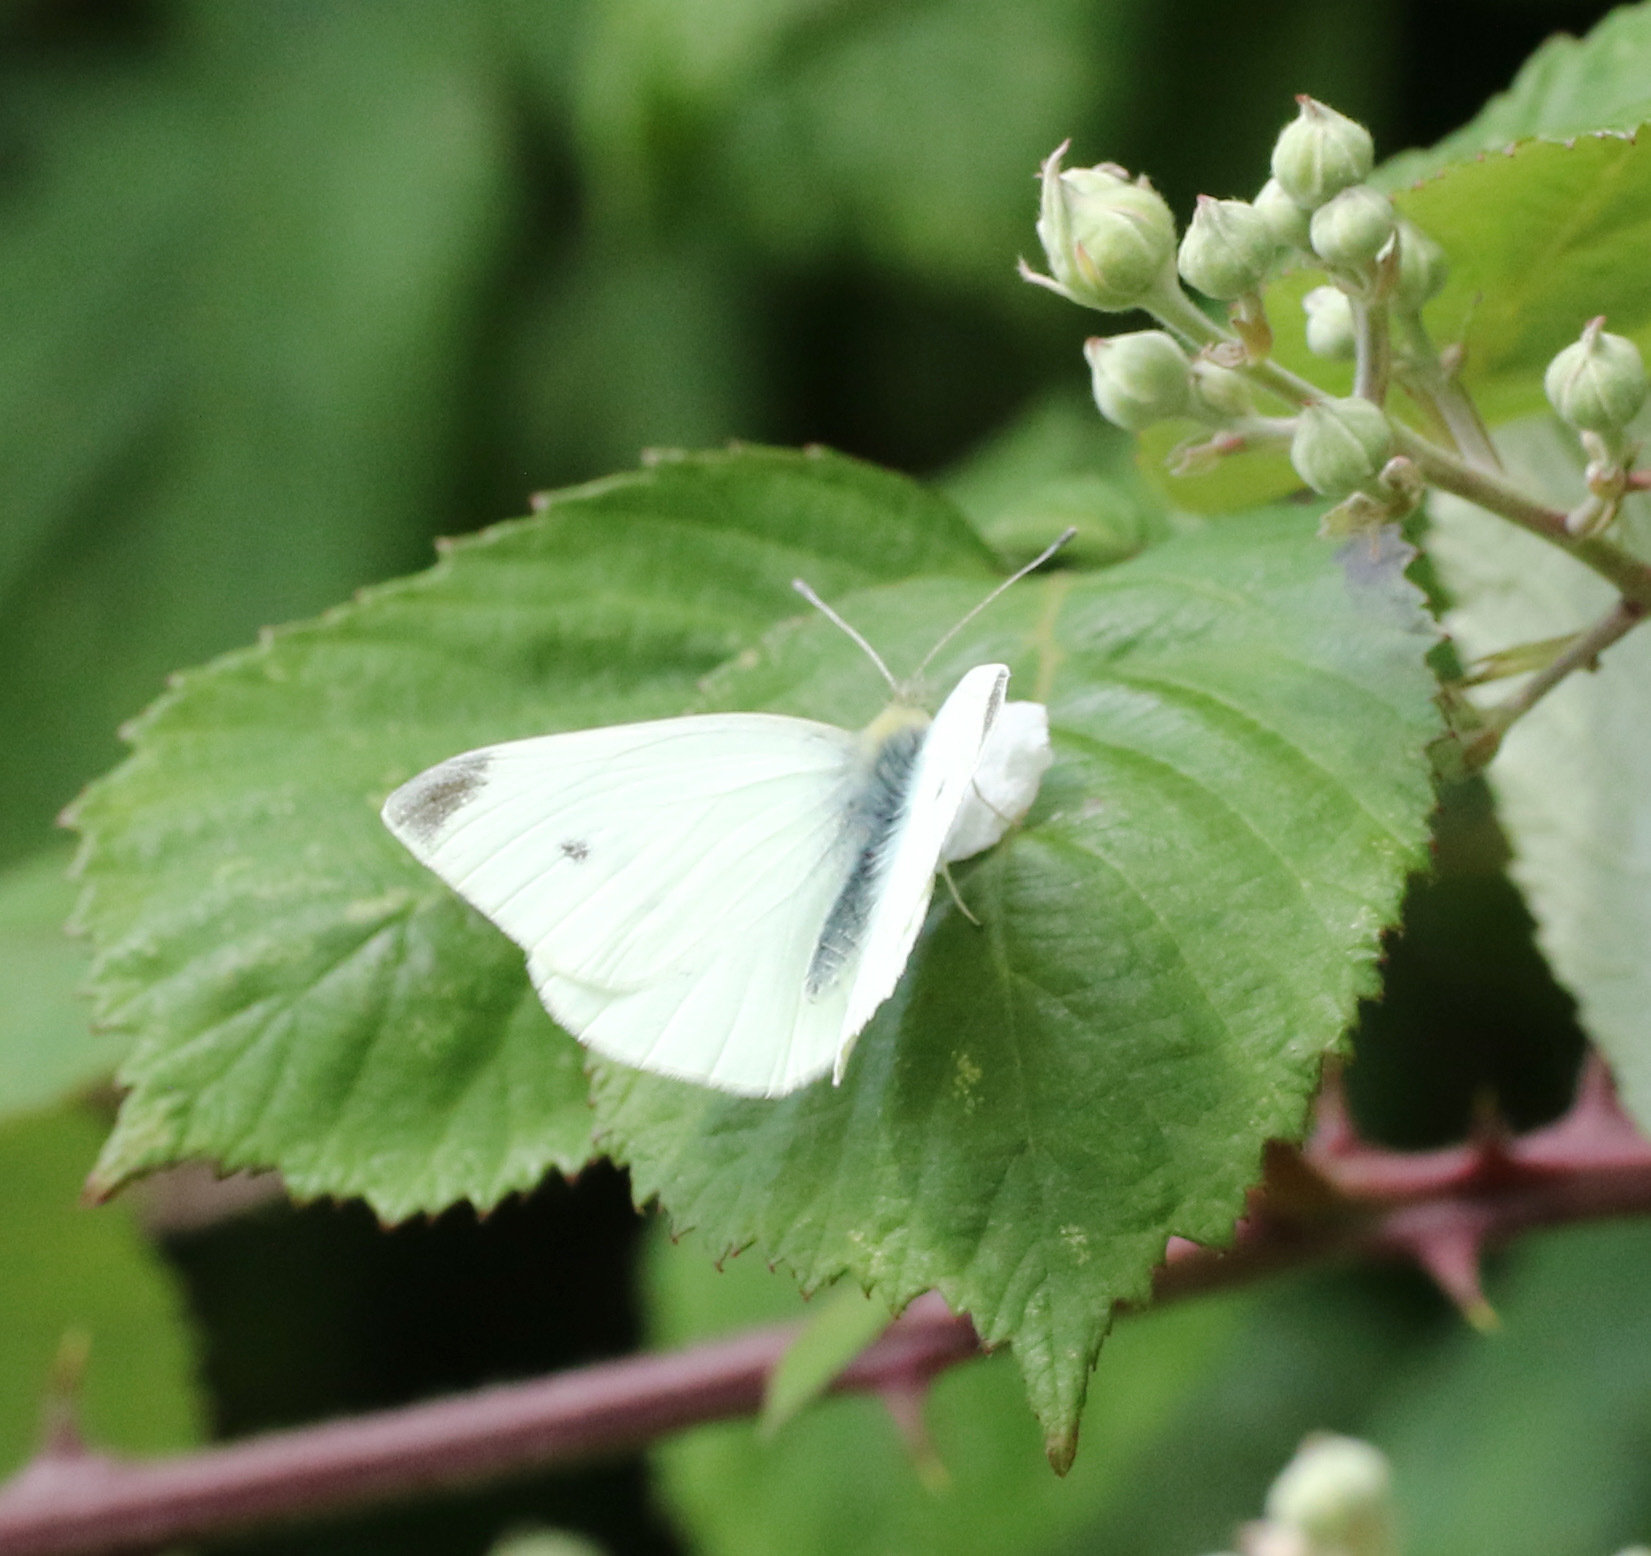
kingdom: Animalia
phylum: Arthropoda
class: Insecta
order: Lepidoptera
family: Pieridae
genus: Pieris
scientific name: Pieris rapae
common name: Small white
